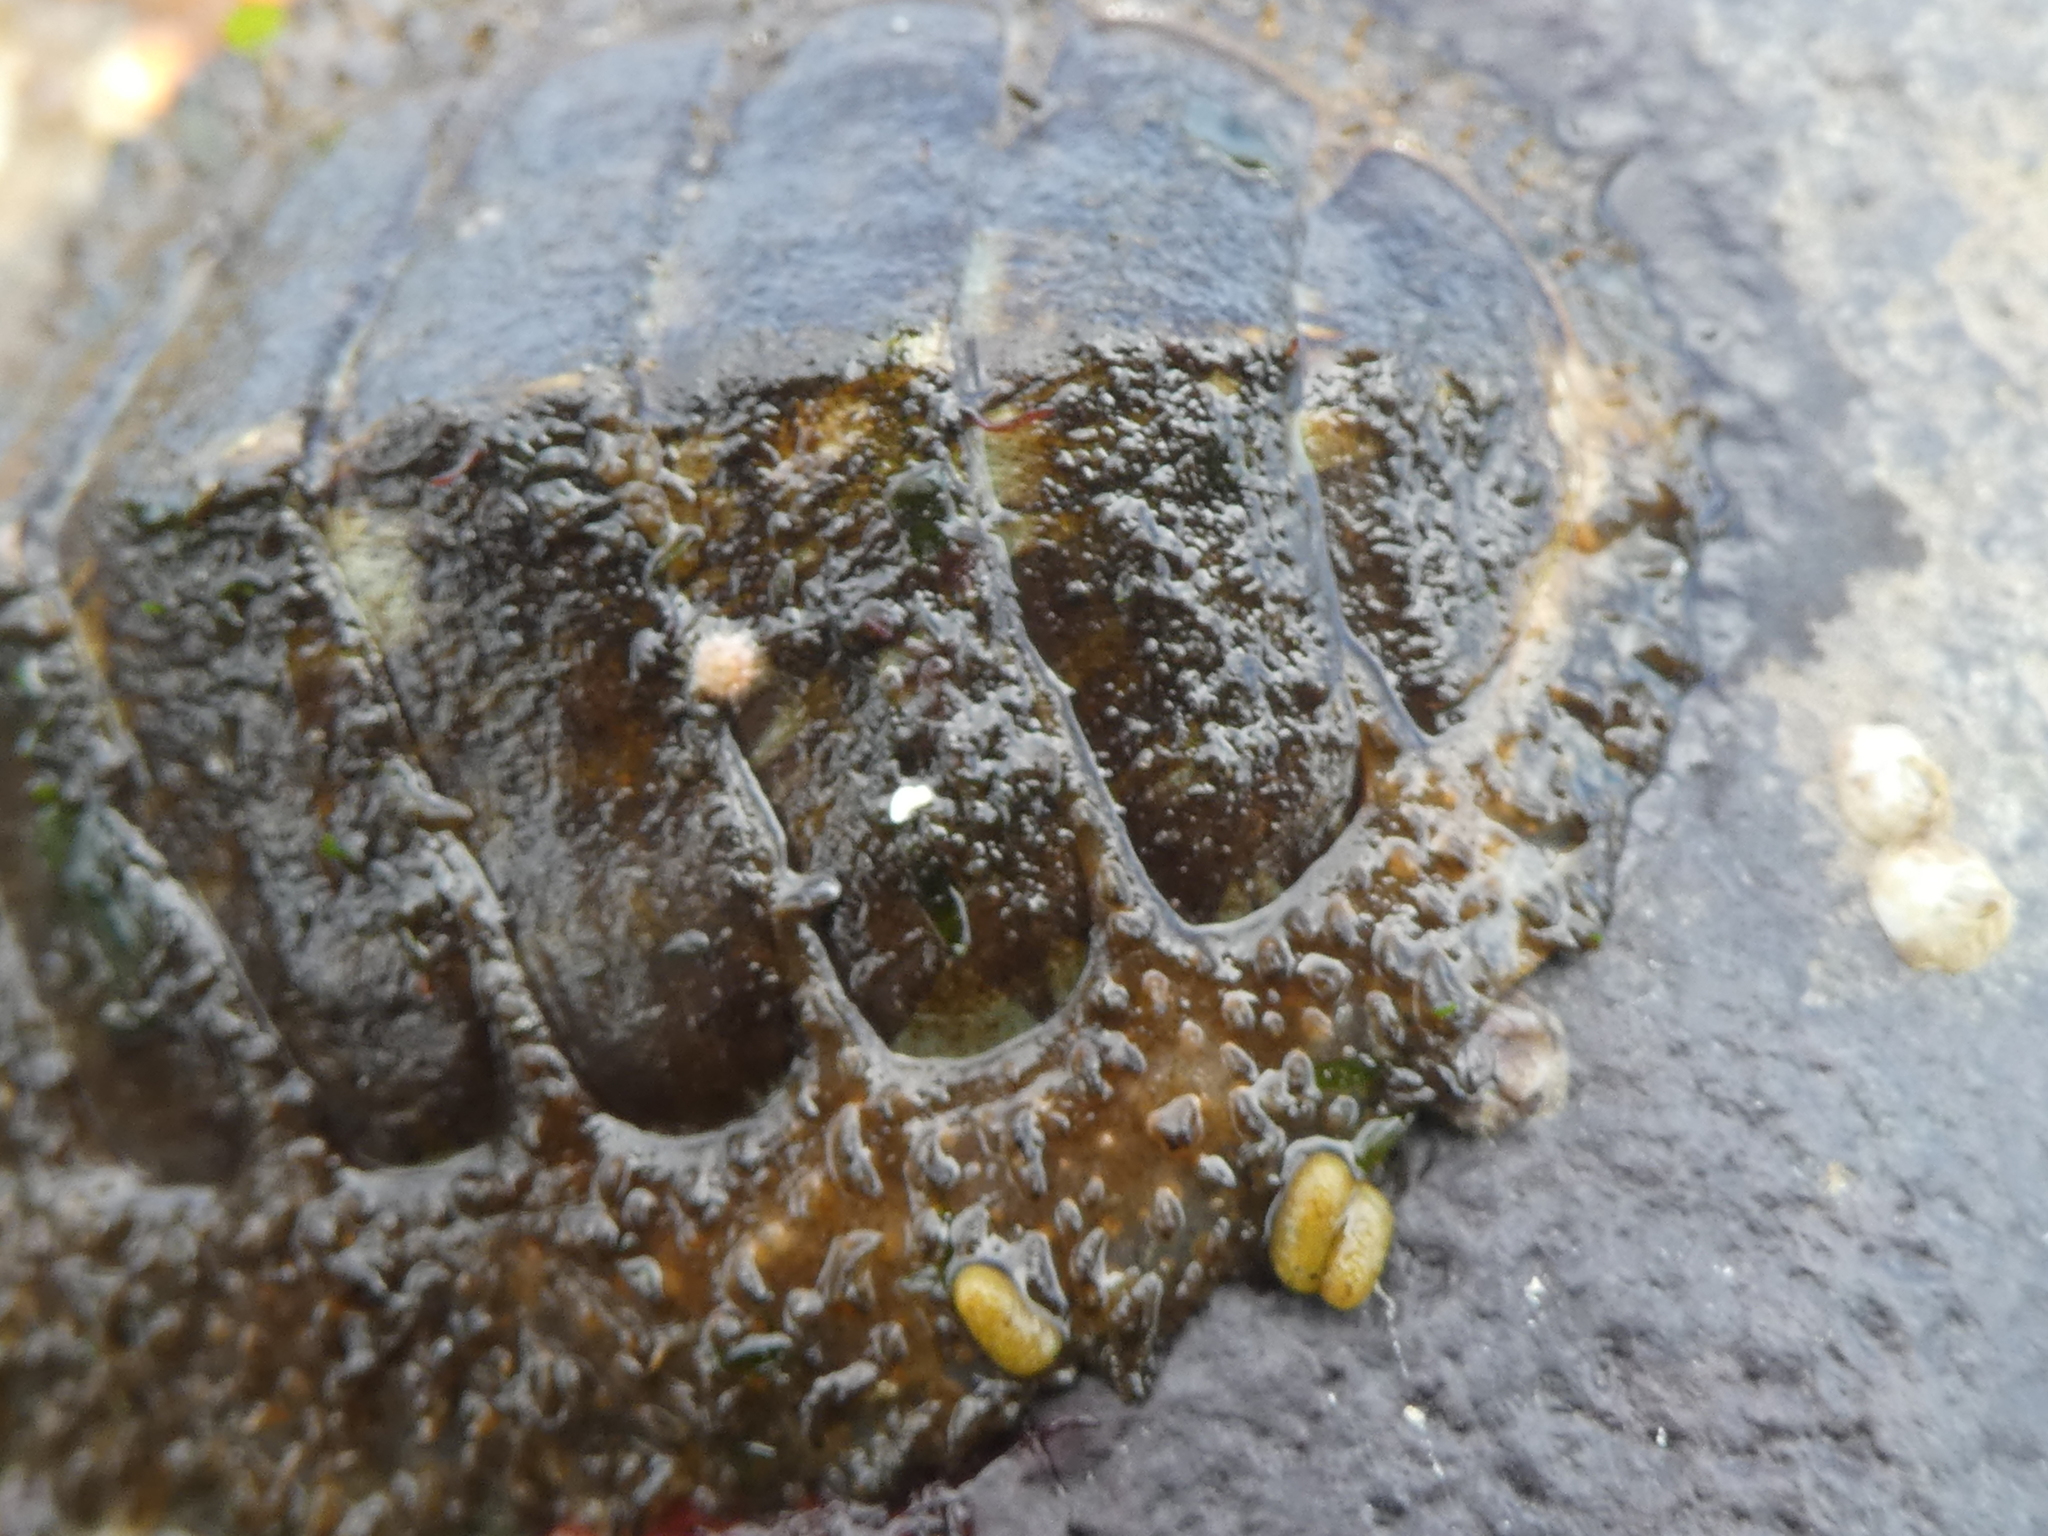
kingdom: Animalia
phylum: Mollusca
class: Polyplacophora
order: Chitonida
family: Mopaliidae
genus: Mopalia
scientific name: Mopalia lignosa
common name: Woody chiton
